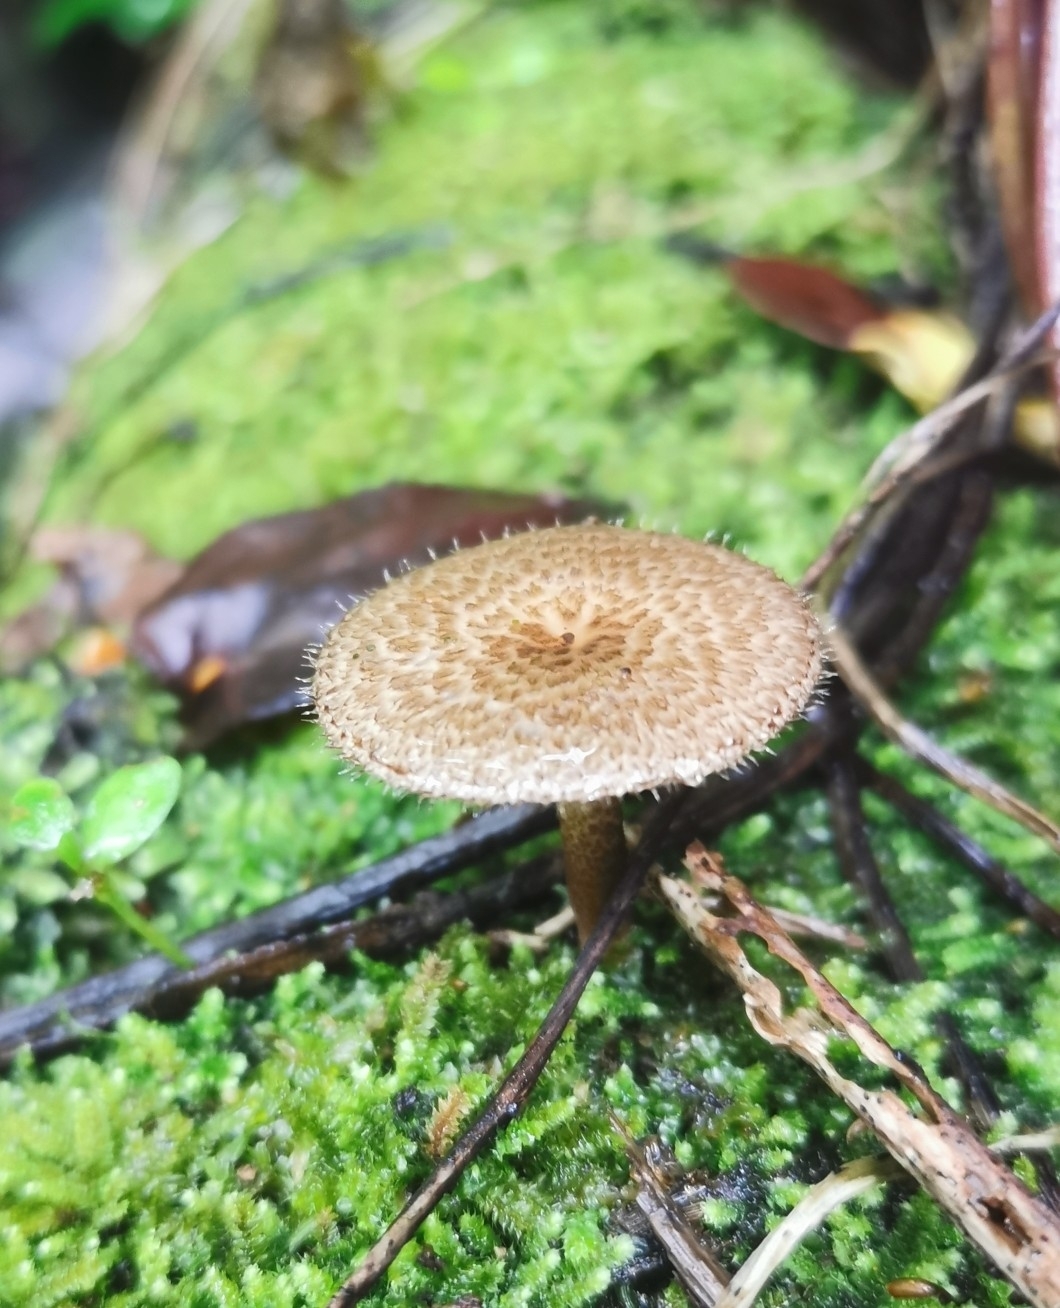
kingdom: Fungi
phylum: Basidiomycota
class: Agaricomycetes
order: Polyporales
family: Polyporaceae
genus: Lentinus
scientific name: Lentinus arcularius
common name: Spring polypore
